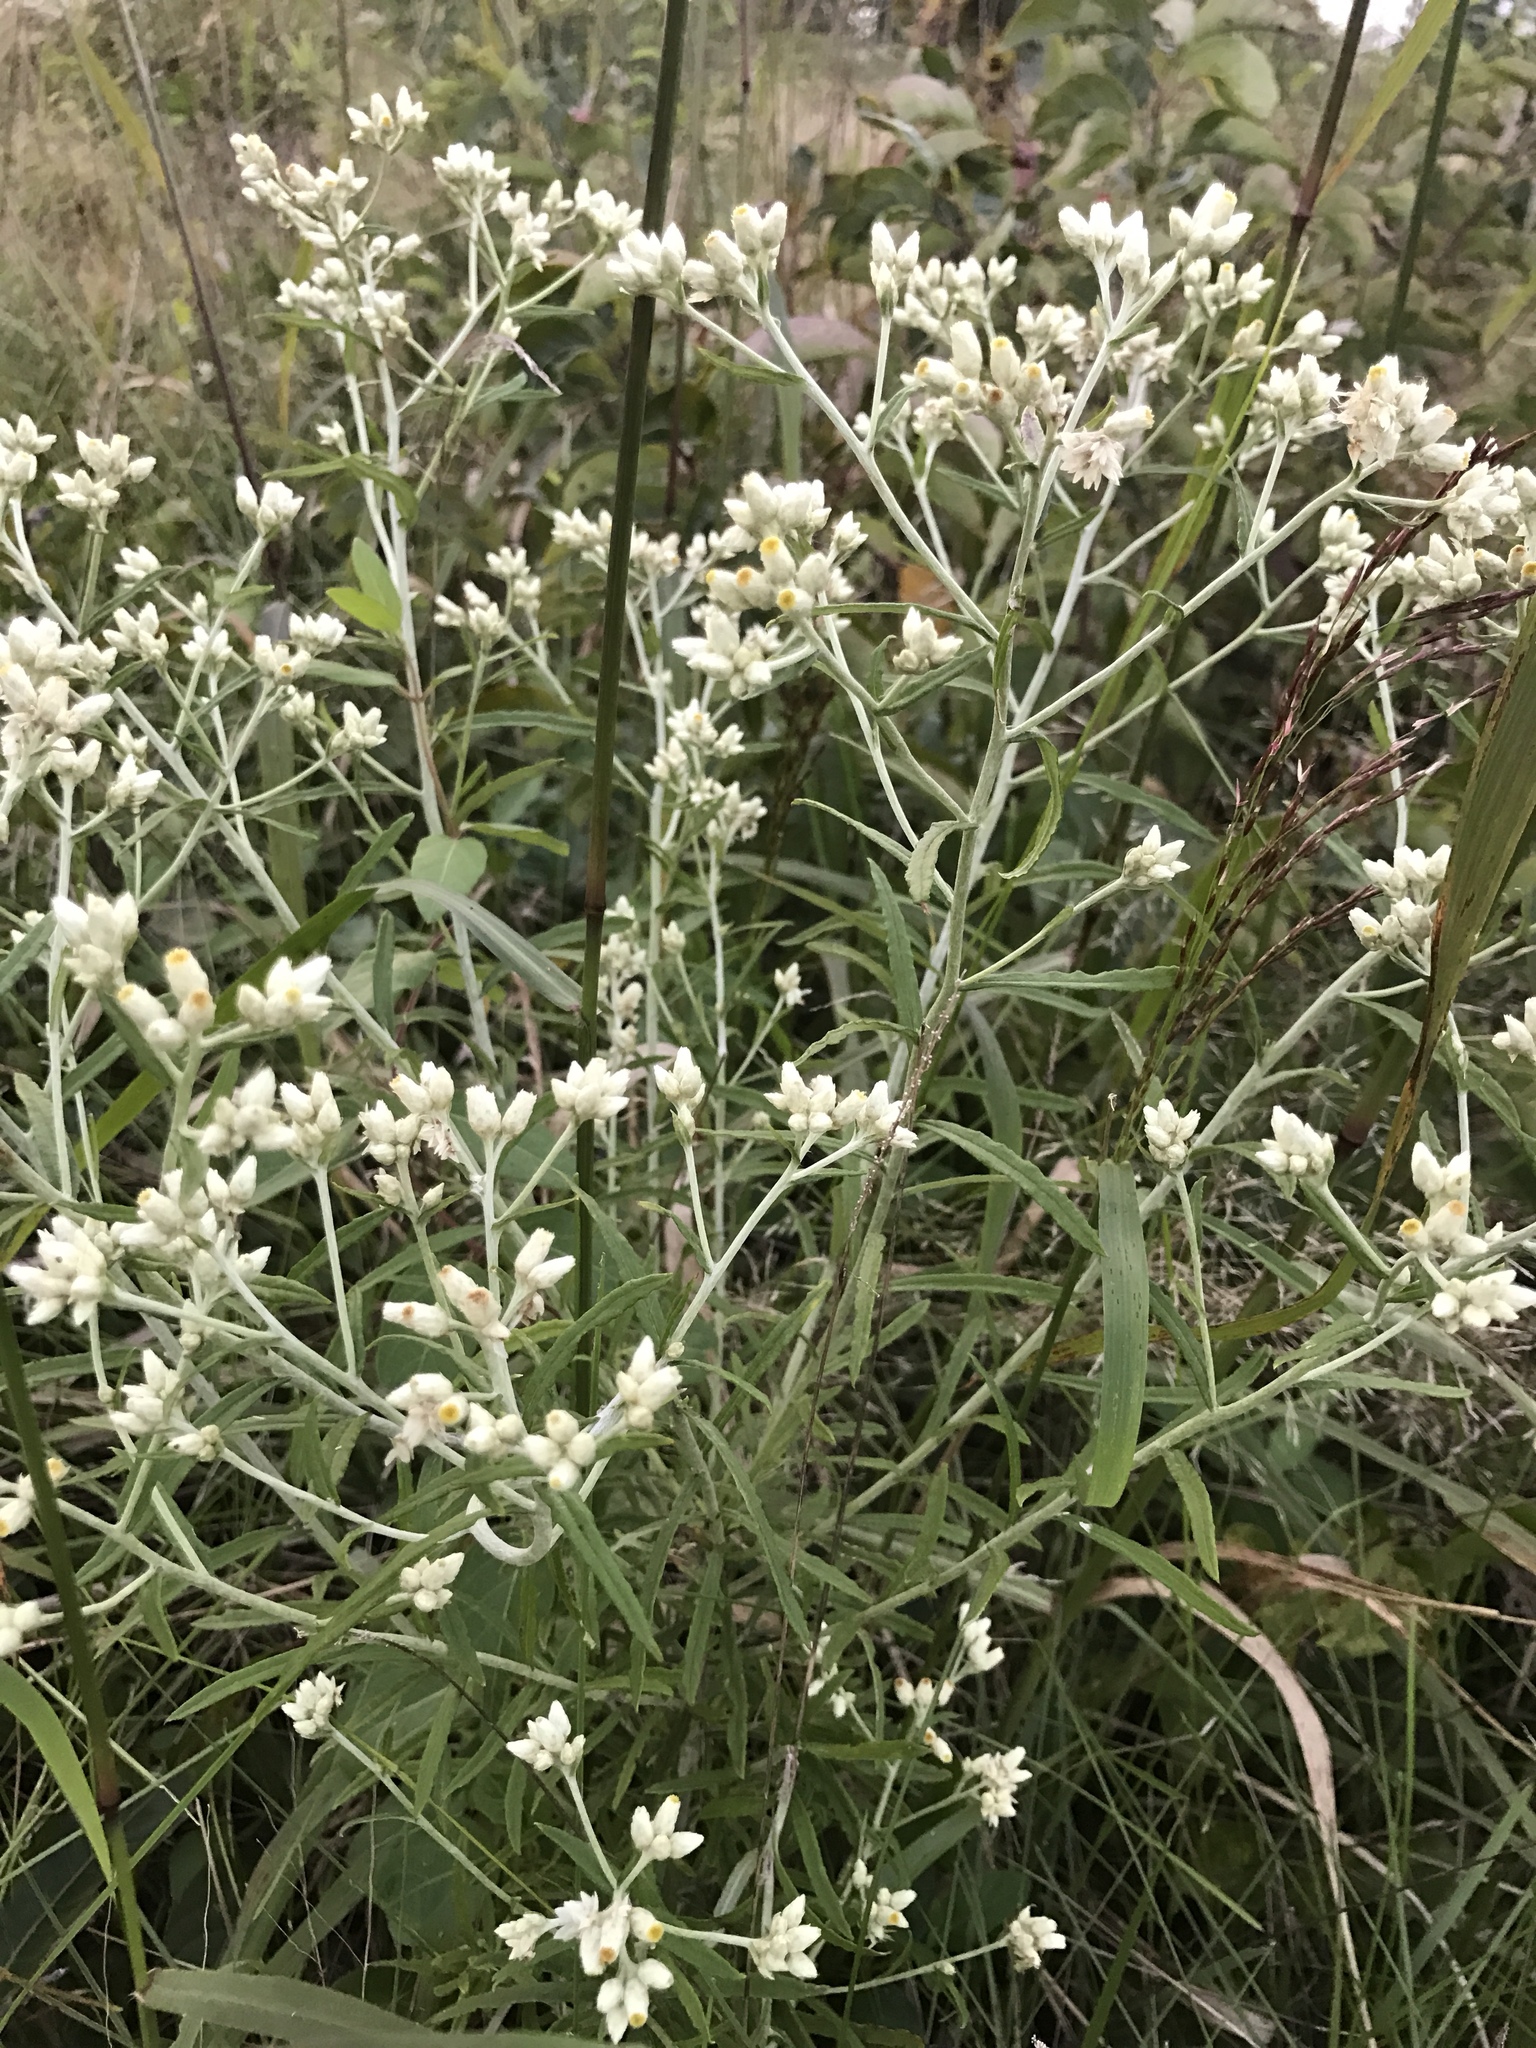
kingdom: Plantae
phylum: Tracheophyta
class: Magnoliopsida
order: Asterales
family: Asteraceae
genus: Pseudognaphalium
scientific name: Pseudognaphalium obtusifolium
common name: Eastern rabbit-tobacco
